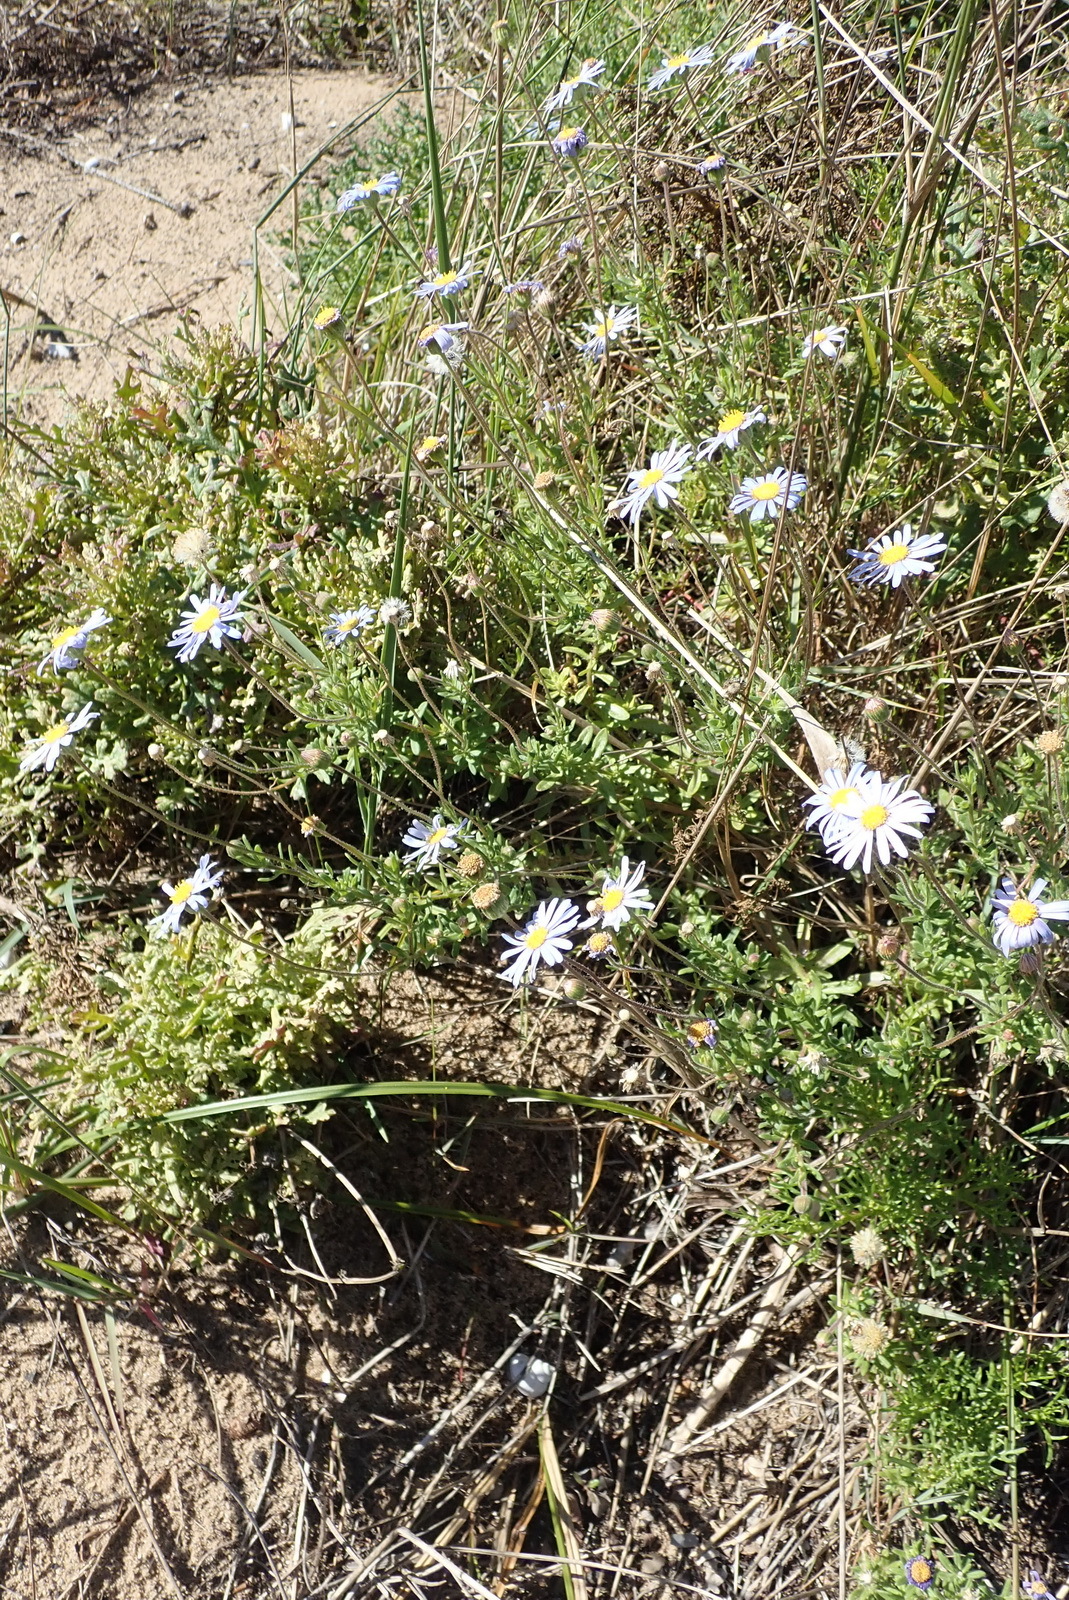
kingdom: Plantae
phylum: Tracheophyta
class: Magnoliopsida
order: Asterales
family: Asteraceae
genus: Felicia
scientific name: Felicia amoena
